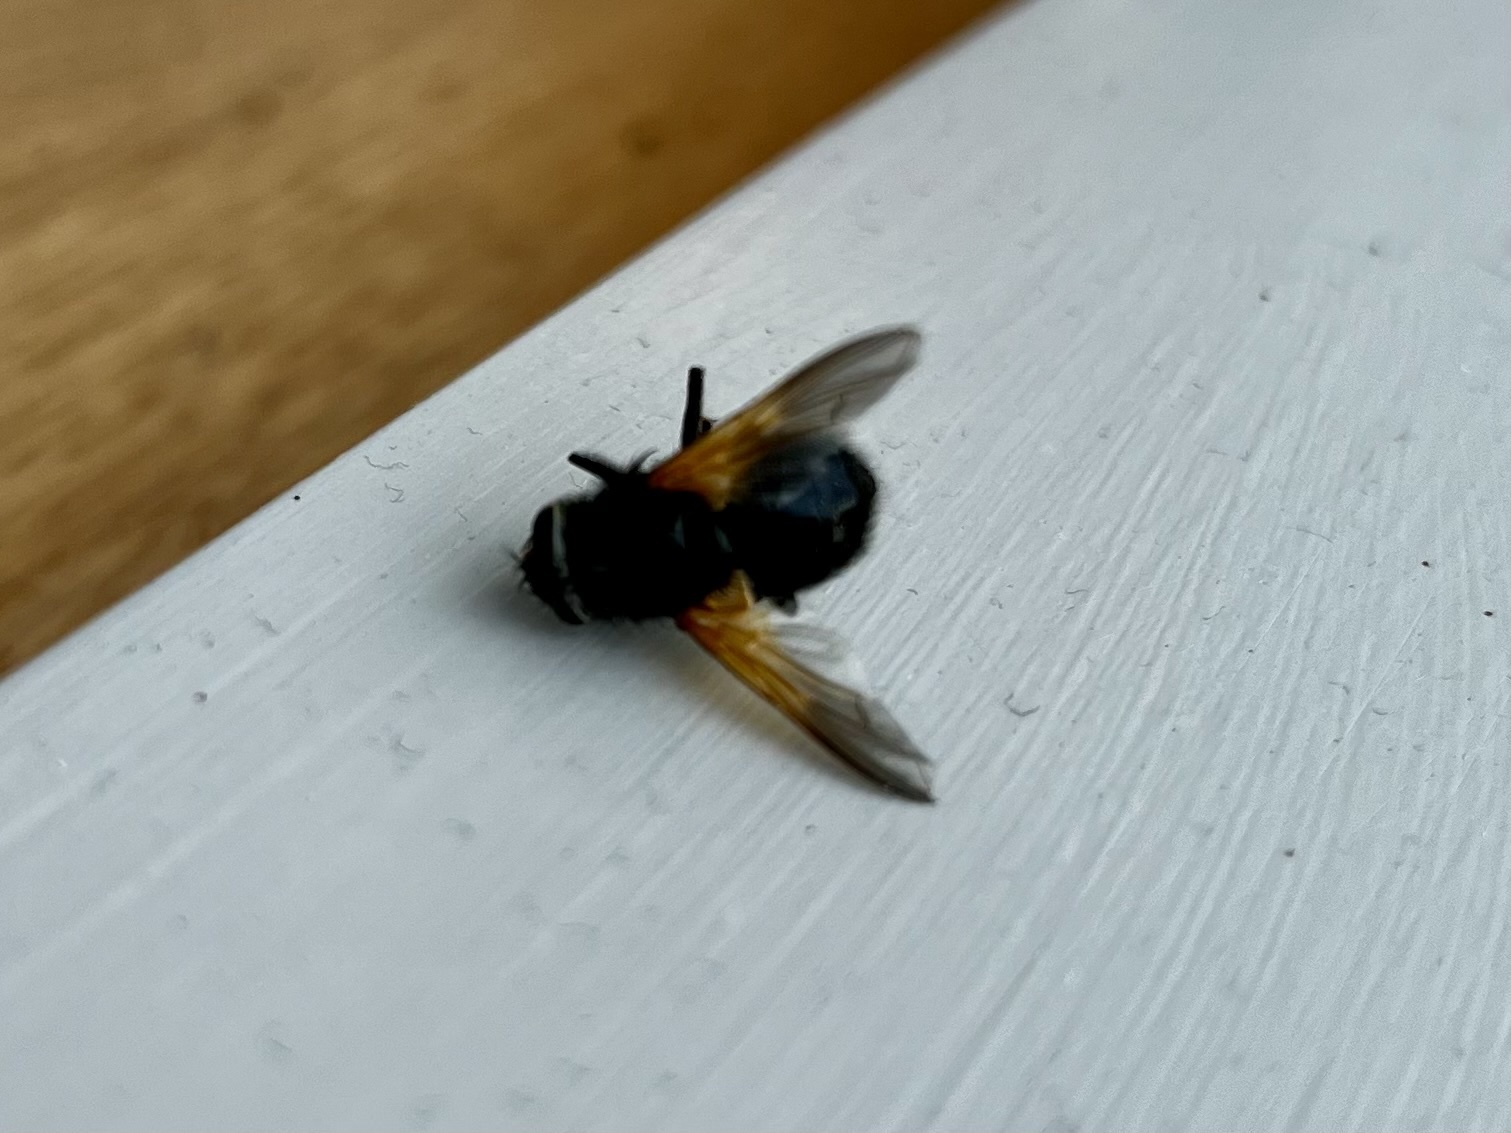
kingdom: Animalia
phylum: Arthropoda
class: Insecta
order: Diptera
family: Muscidae
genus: Mesembrina
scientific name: Mesembrina meridiana
